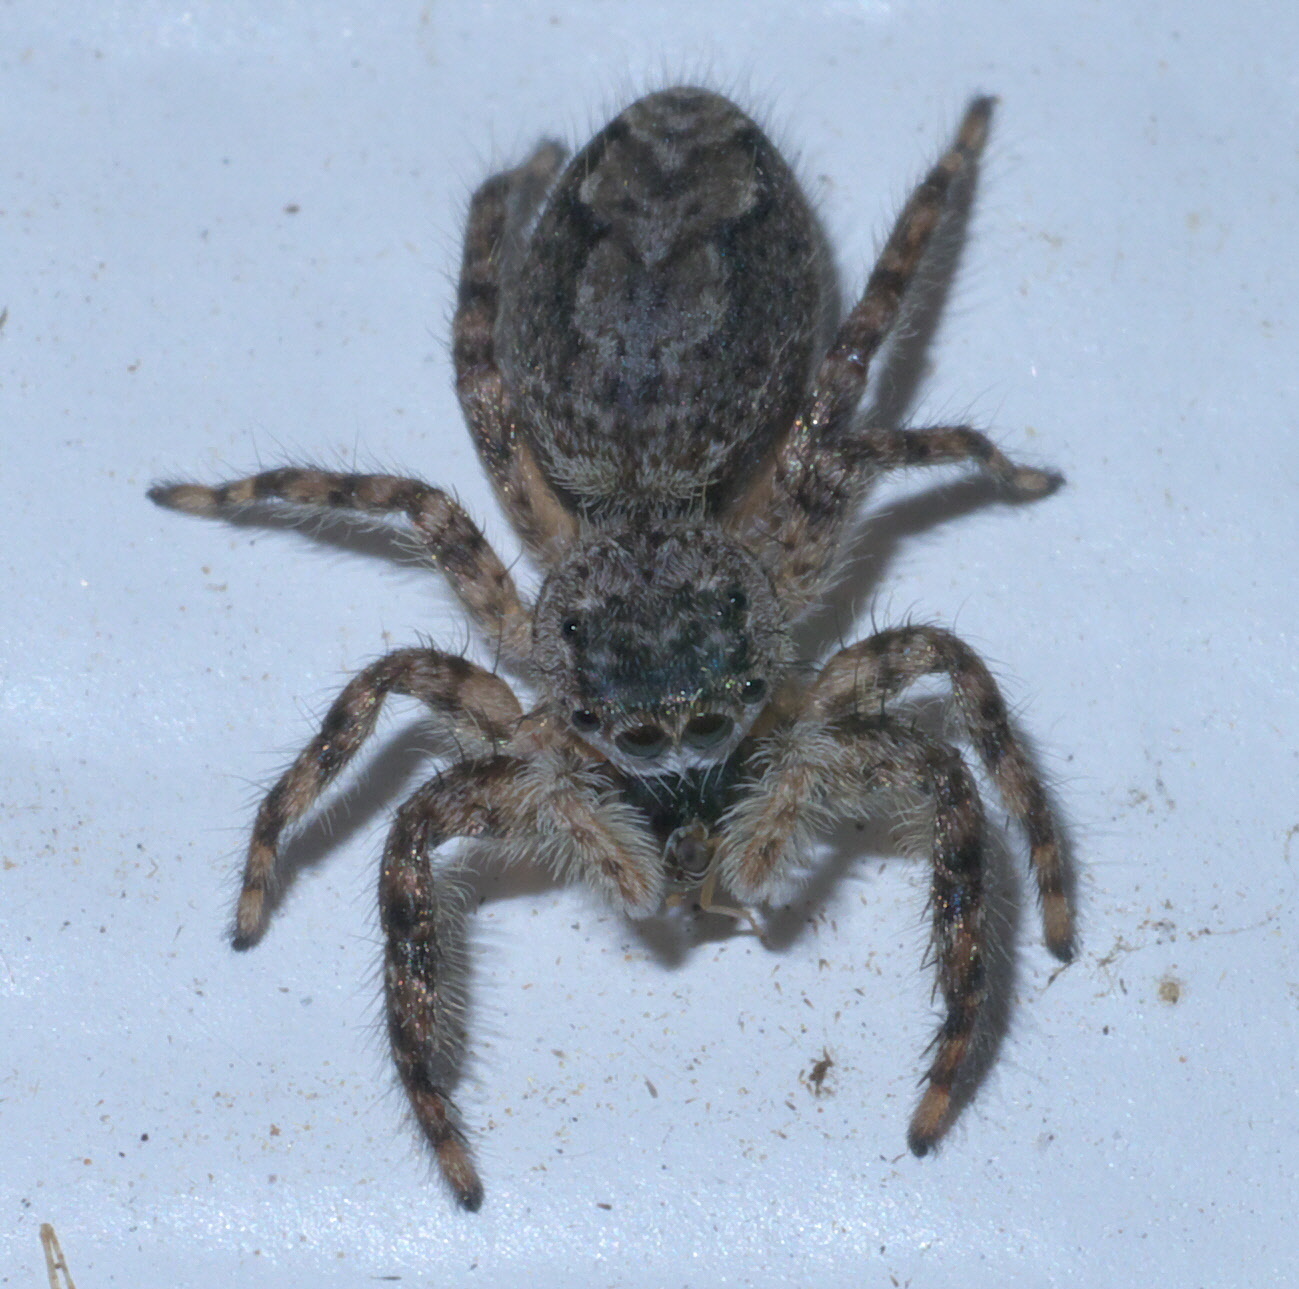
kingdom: Animalia
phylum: Arthropoda
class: Arachnida
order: Araneae
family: Salticidae
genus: Platycryptus
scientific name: Platycryptus undatus
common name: Tan jumping spider
